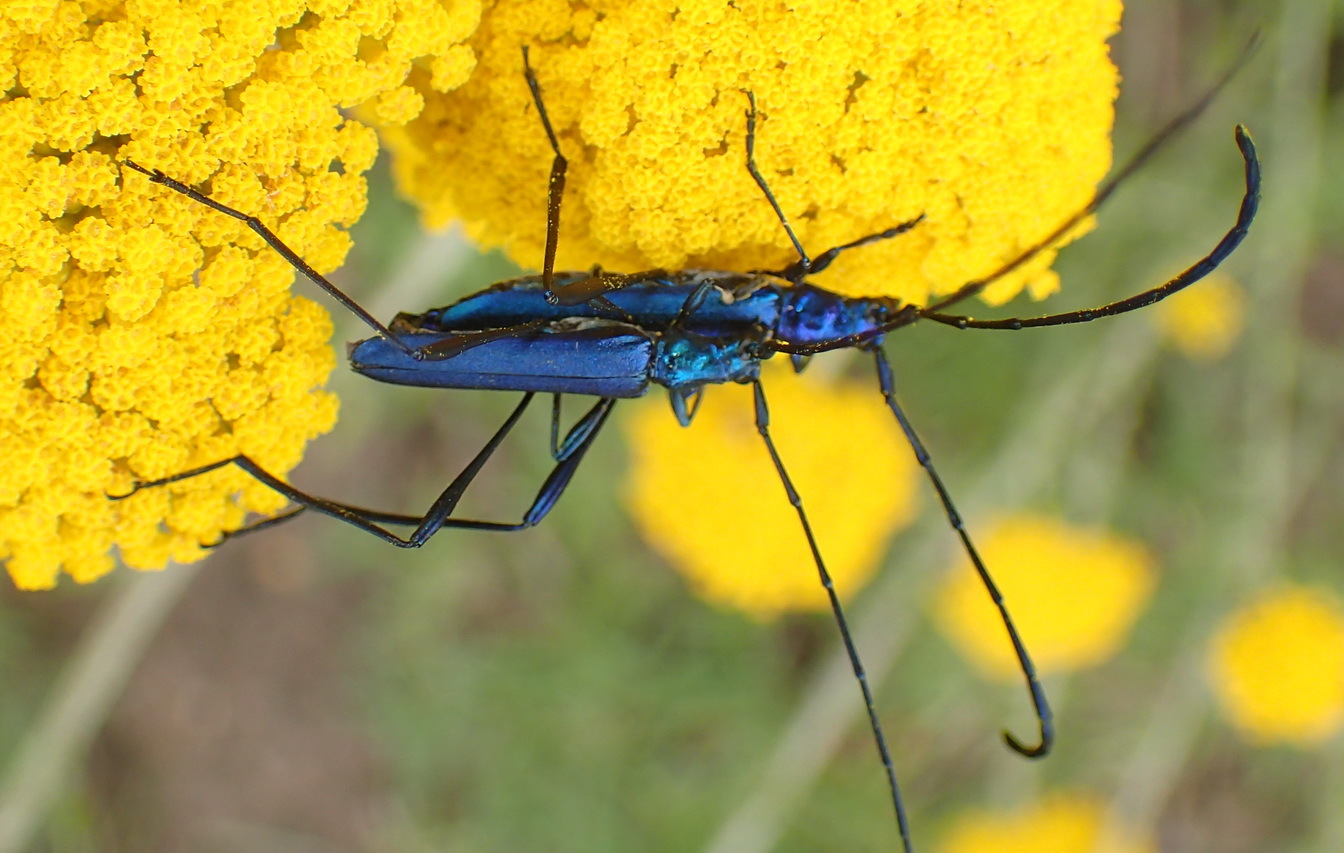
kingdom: Animalia
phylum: Arthropoda
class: Insecta
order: Coleoptera
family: Cerambycidae
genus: Promeces
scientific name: Promeces longipes
